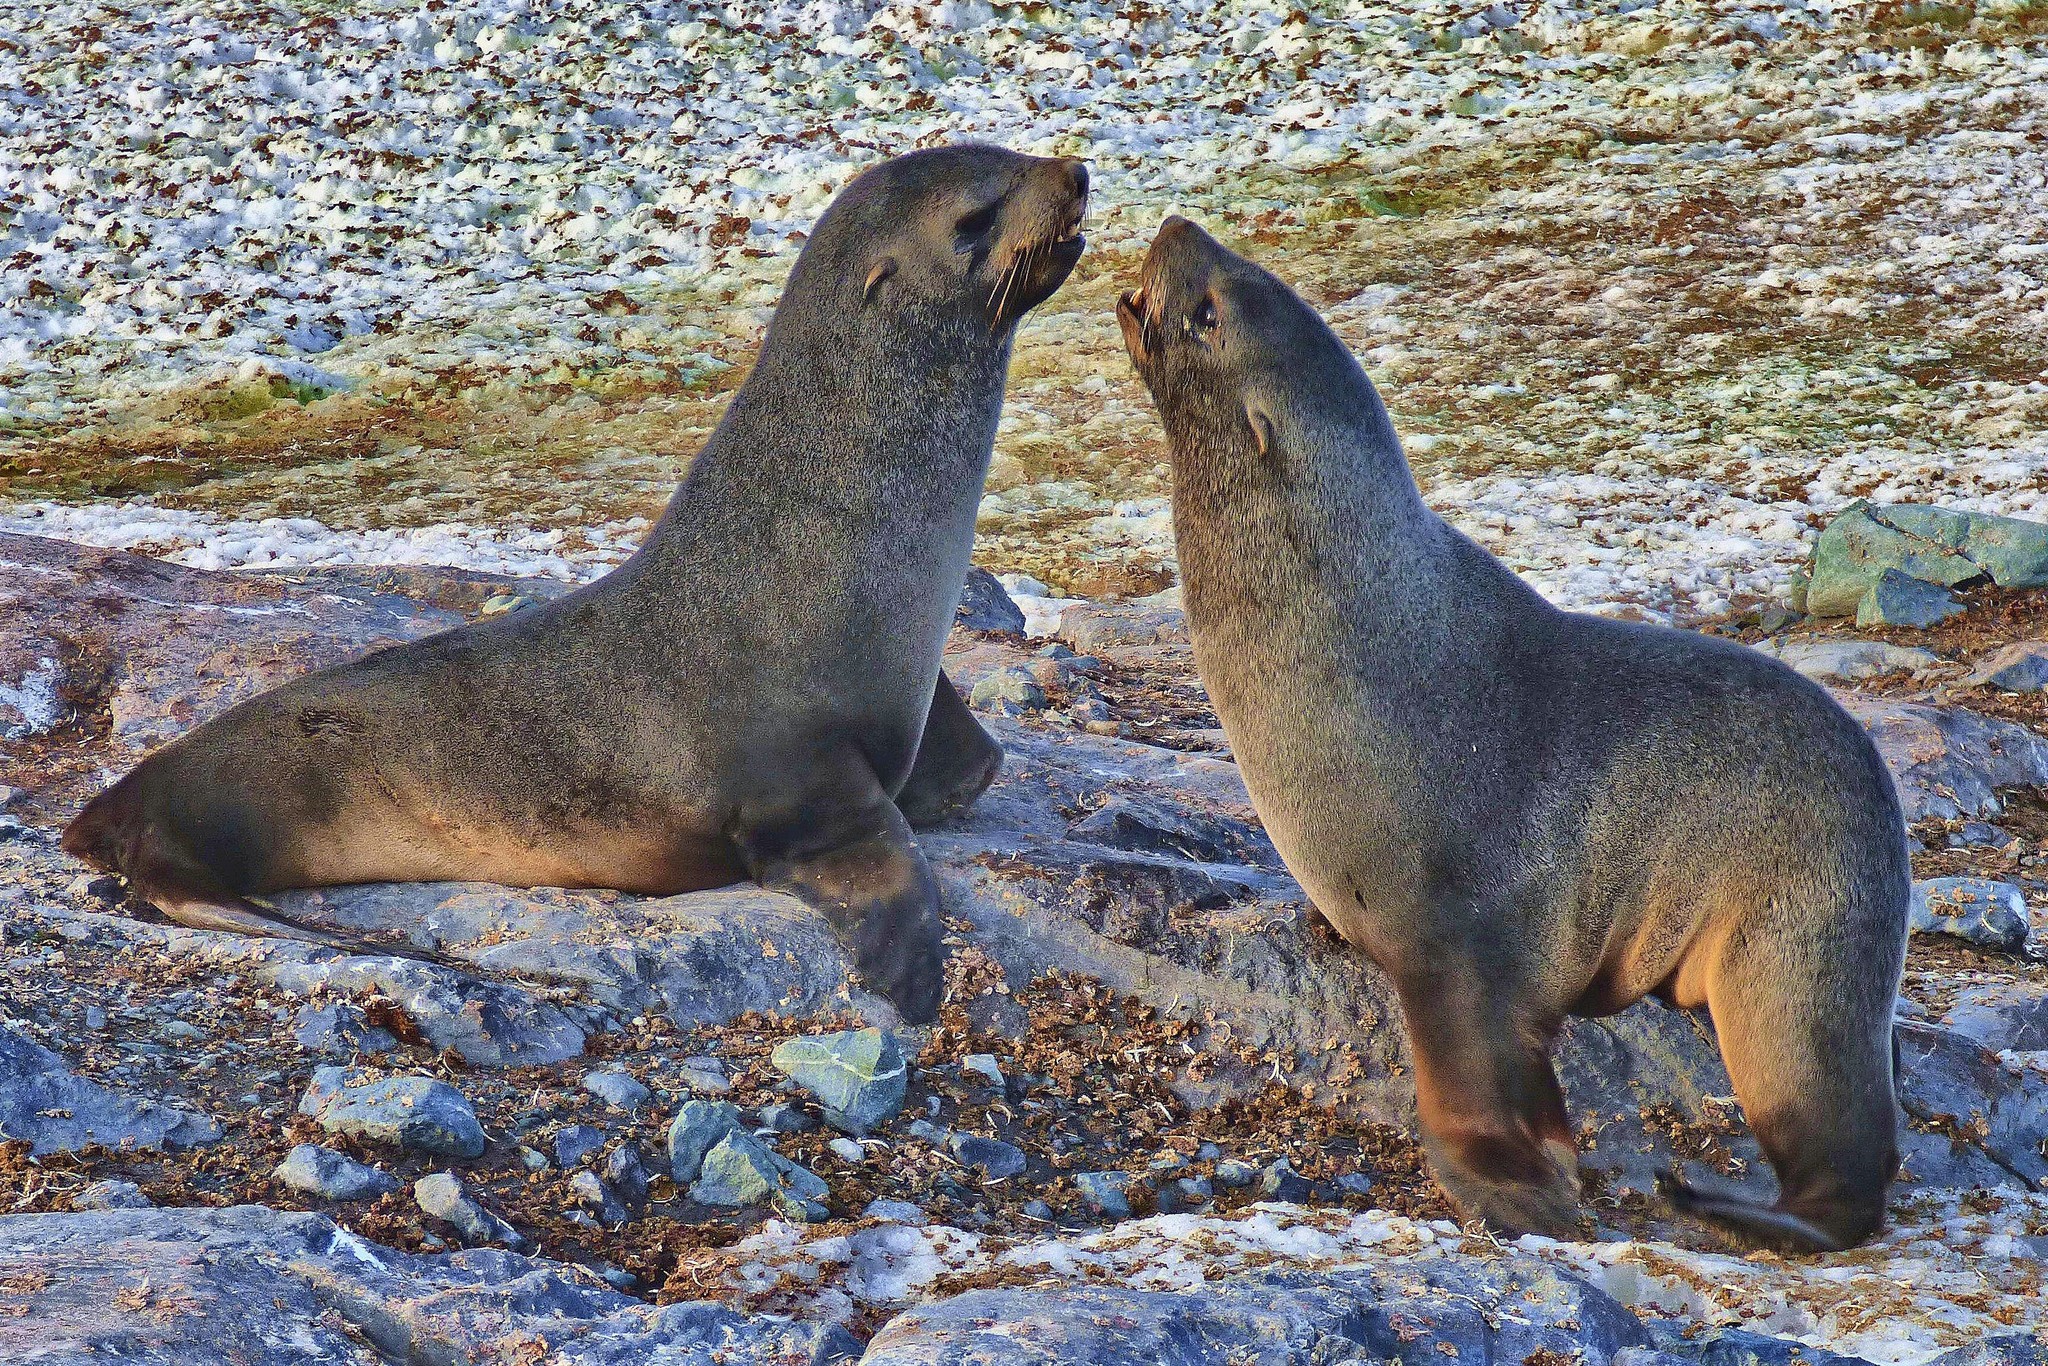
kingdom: Animalia
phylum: Chordata
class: Mammalia
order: Carnivora
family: Otariidae
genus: Arctocephalus
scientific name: Arctocephalus gazella
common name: Antarctic fur seal
